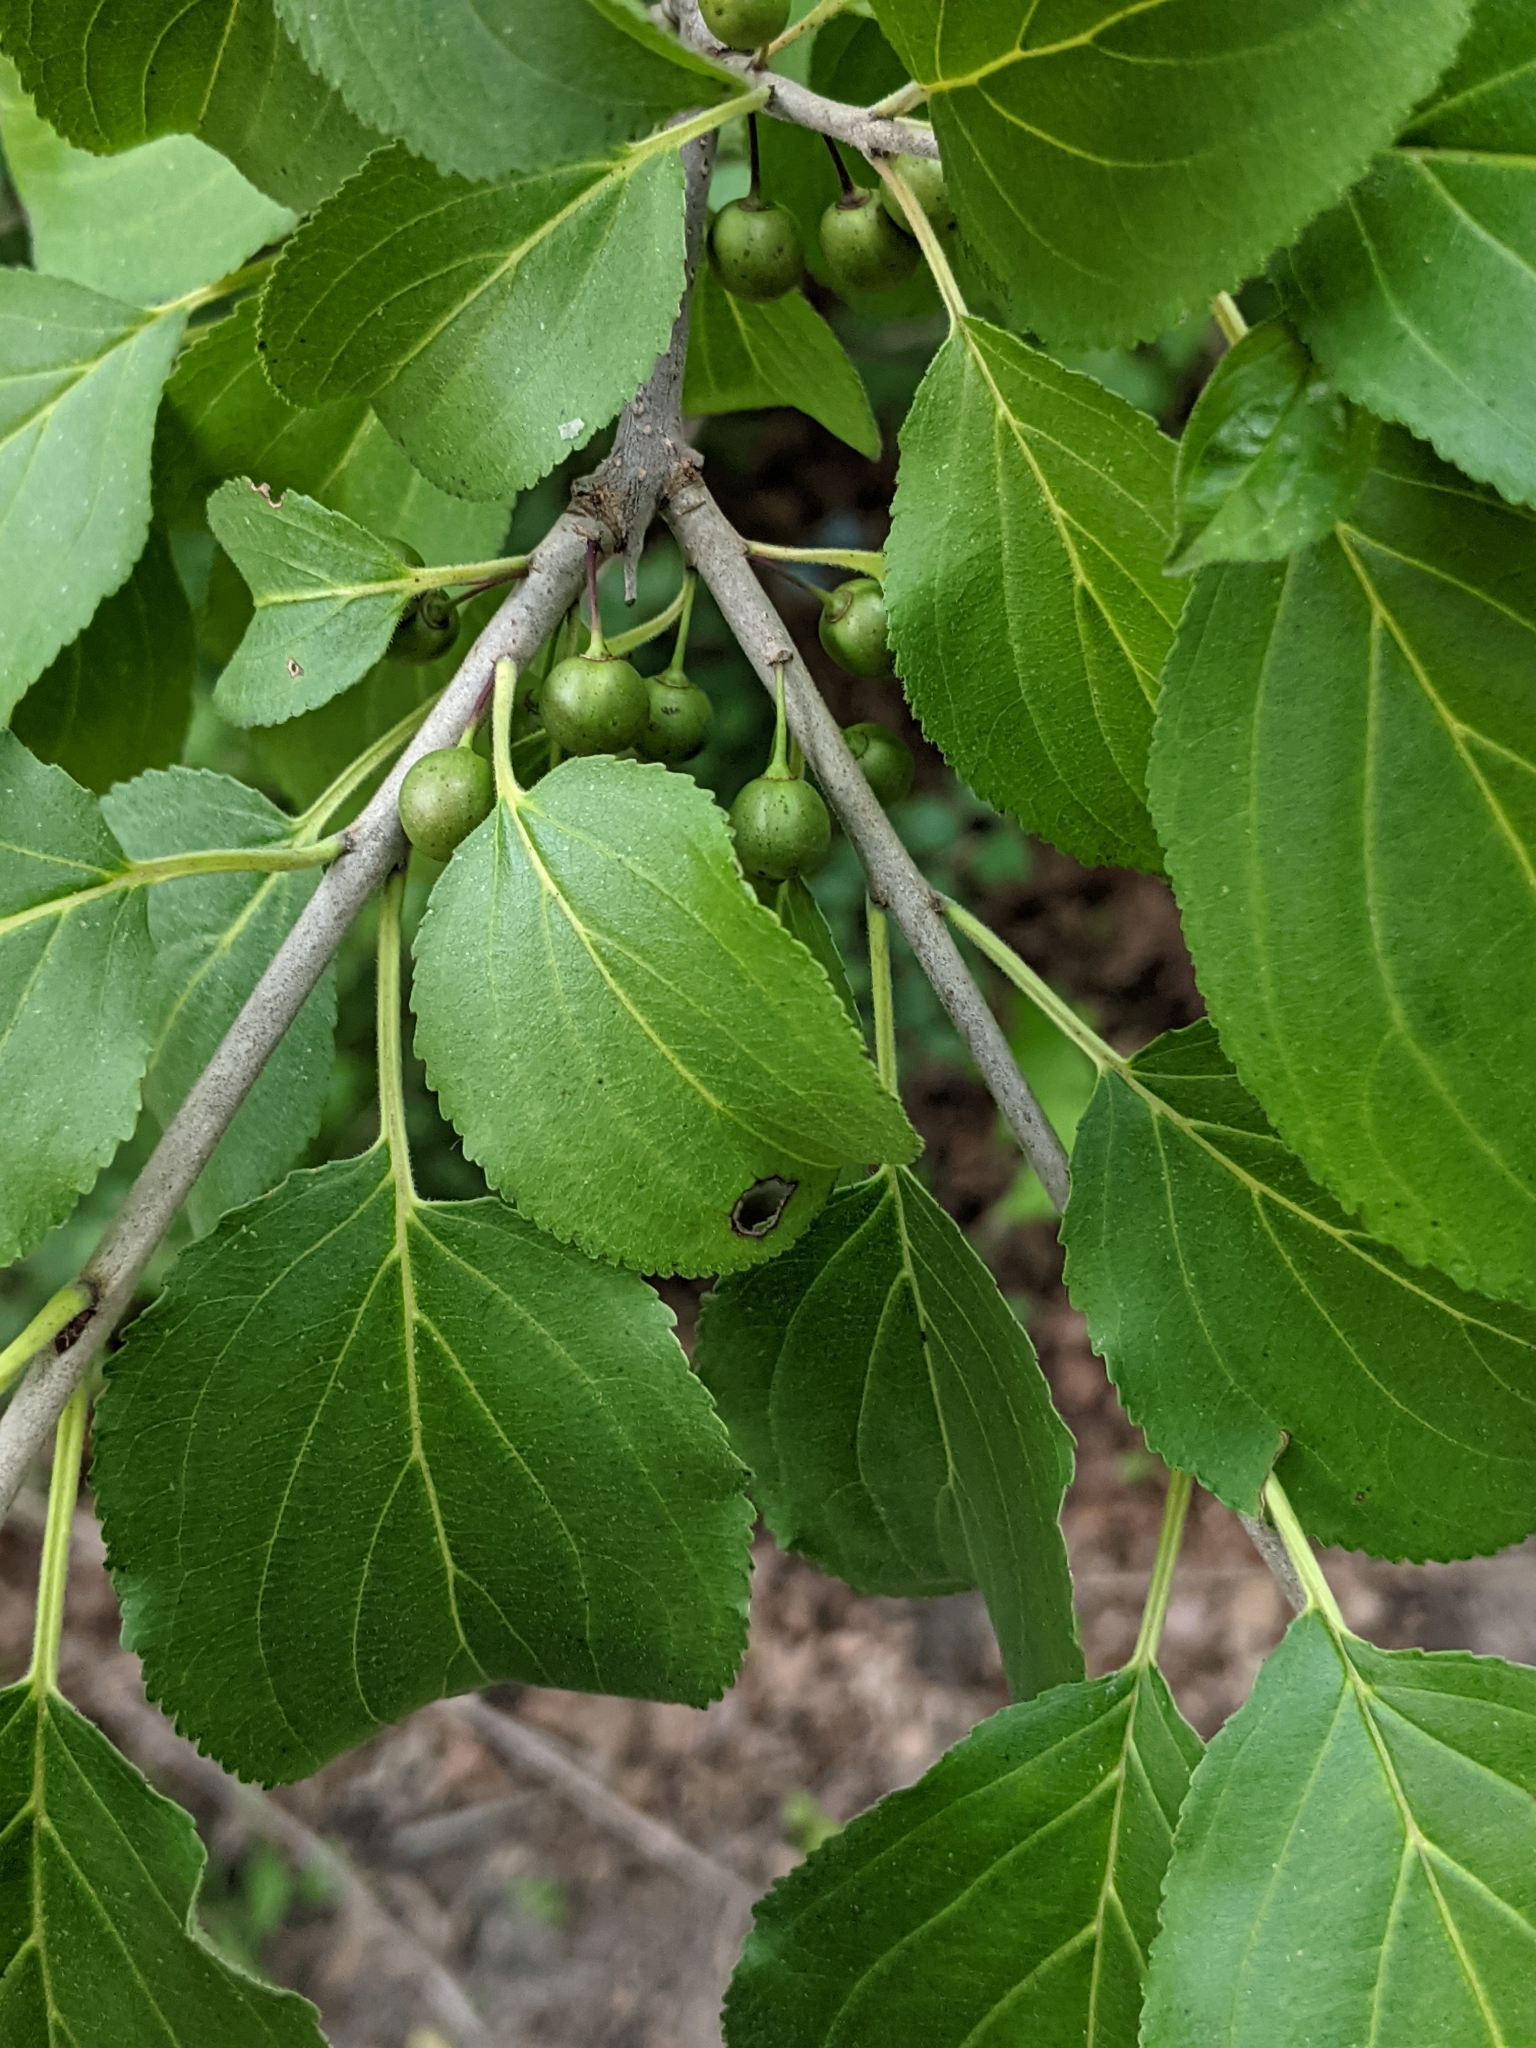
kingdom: Plantae
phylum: Tracheophyta
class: Magnoliopsida
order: Rosales
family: Rhamnaceae
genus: Rhamnus
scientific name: Rhamnus cathartica
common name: Common buckthorn
